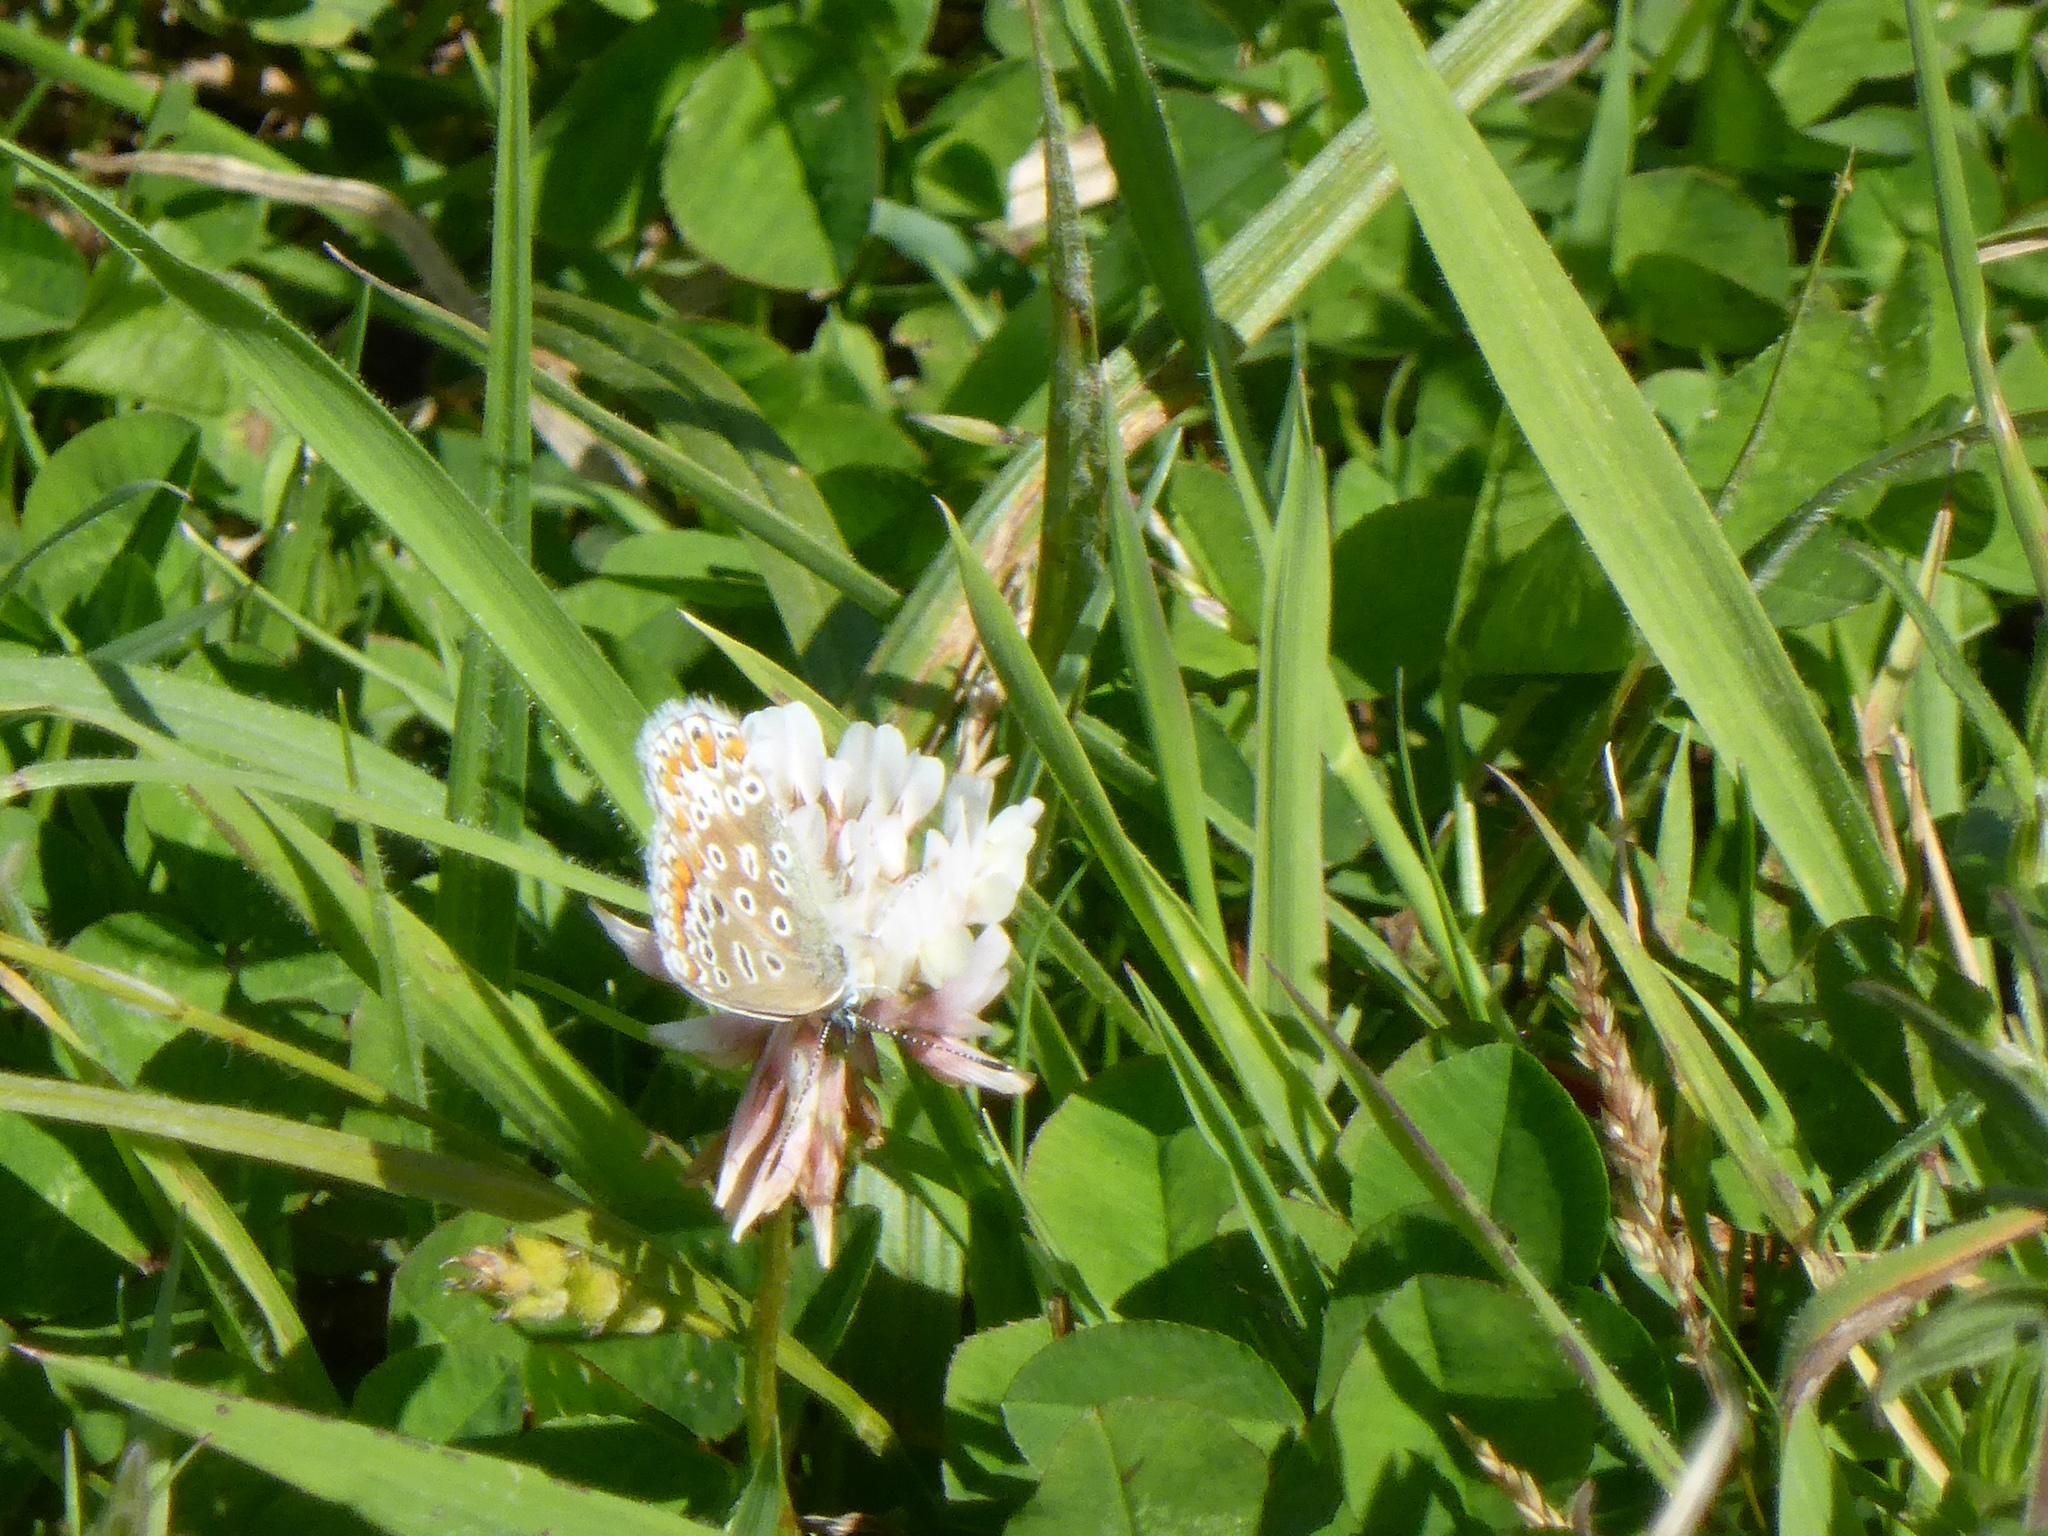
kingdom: Animalia
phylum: Arthropoda
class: Insecta
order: Lepidoptera
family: Lycaenidae
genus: Polyommatus
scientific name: Polyommatus icarus
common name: Common blue
